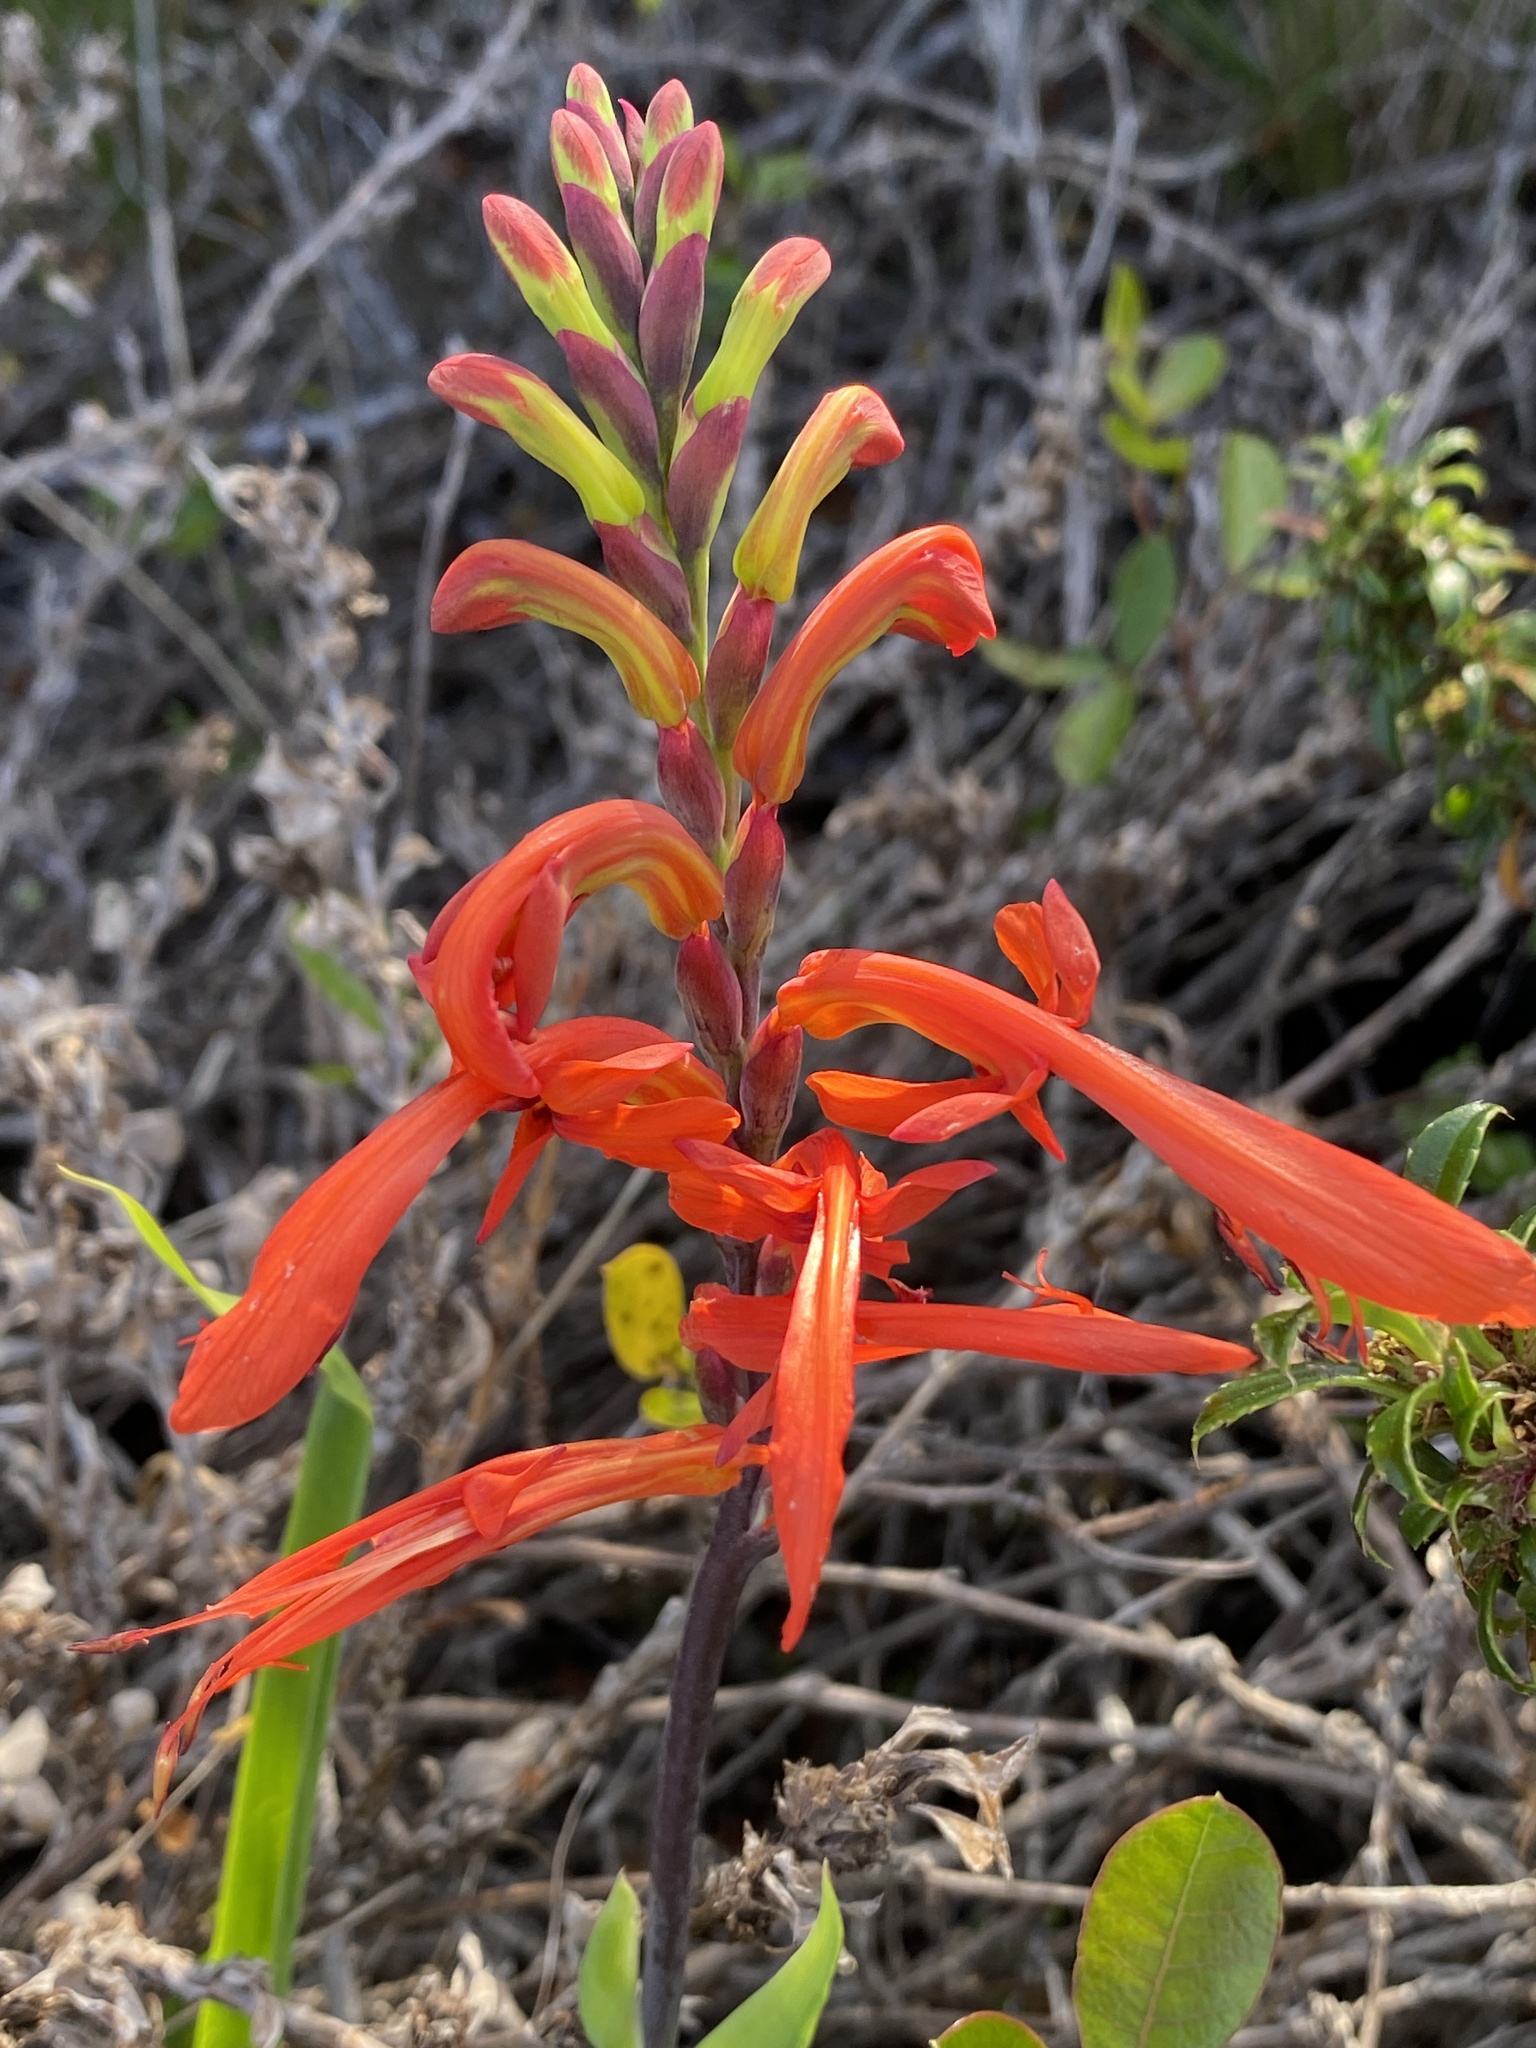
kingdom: Plantae
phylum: Tracheophyta
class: Liliopsida
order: Asparagales
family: Iridaceae
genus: Chasmanthe
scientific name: Chasmanthe aethiopica
